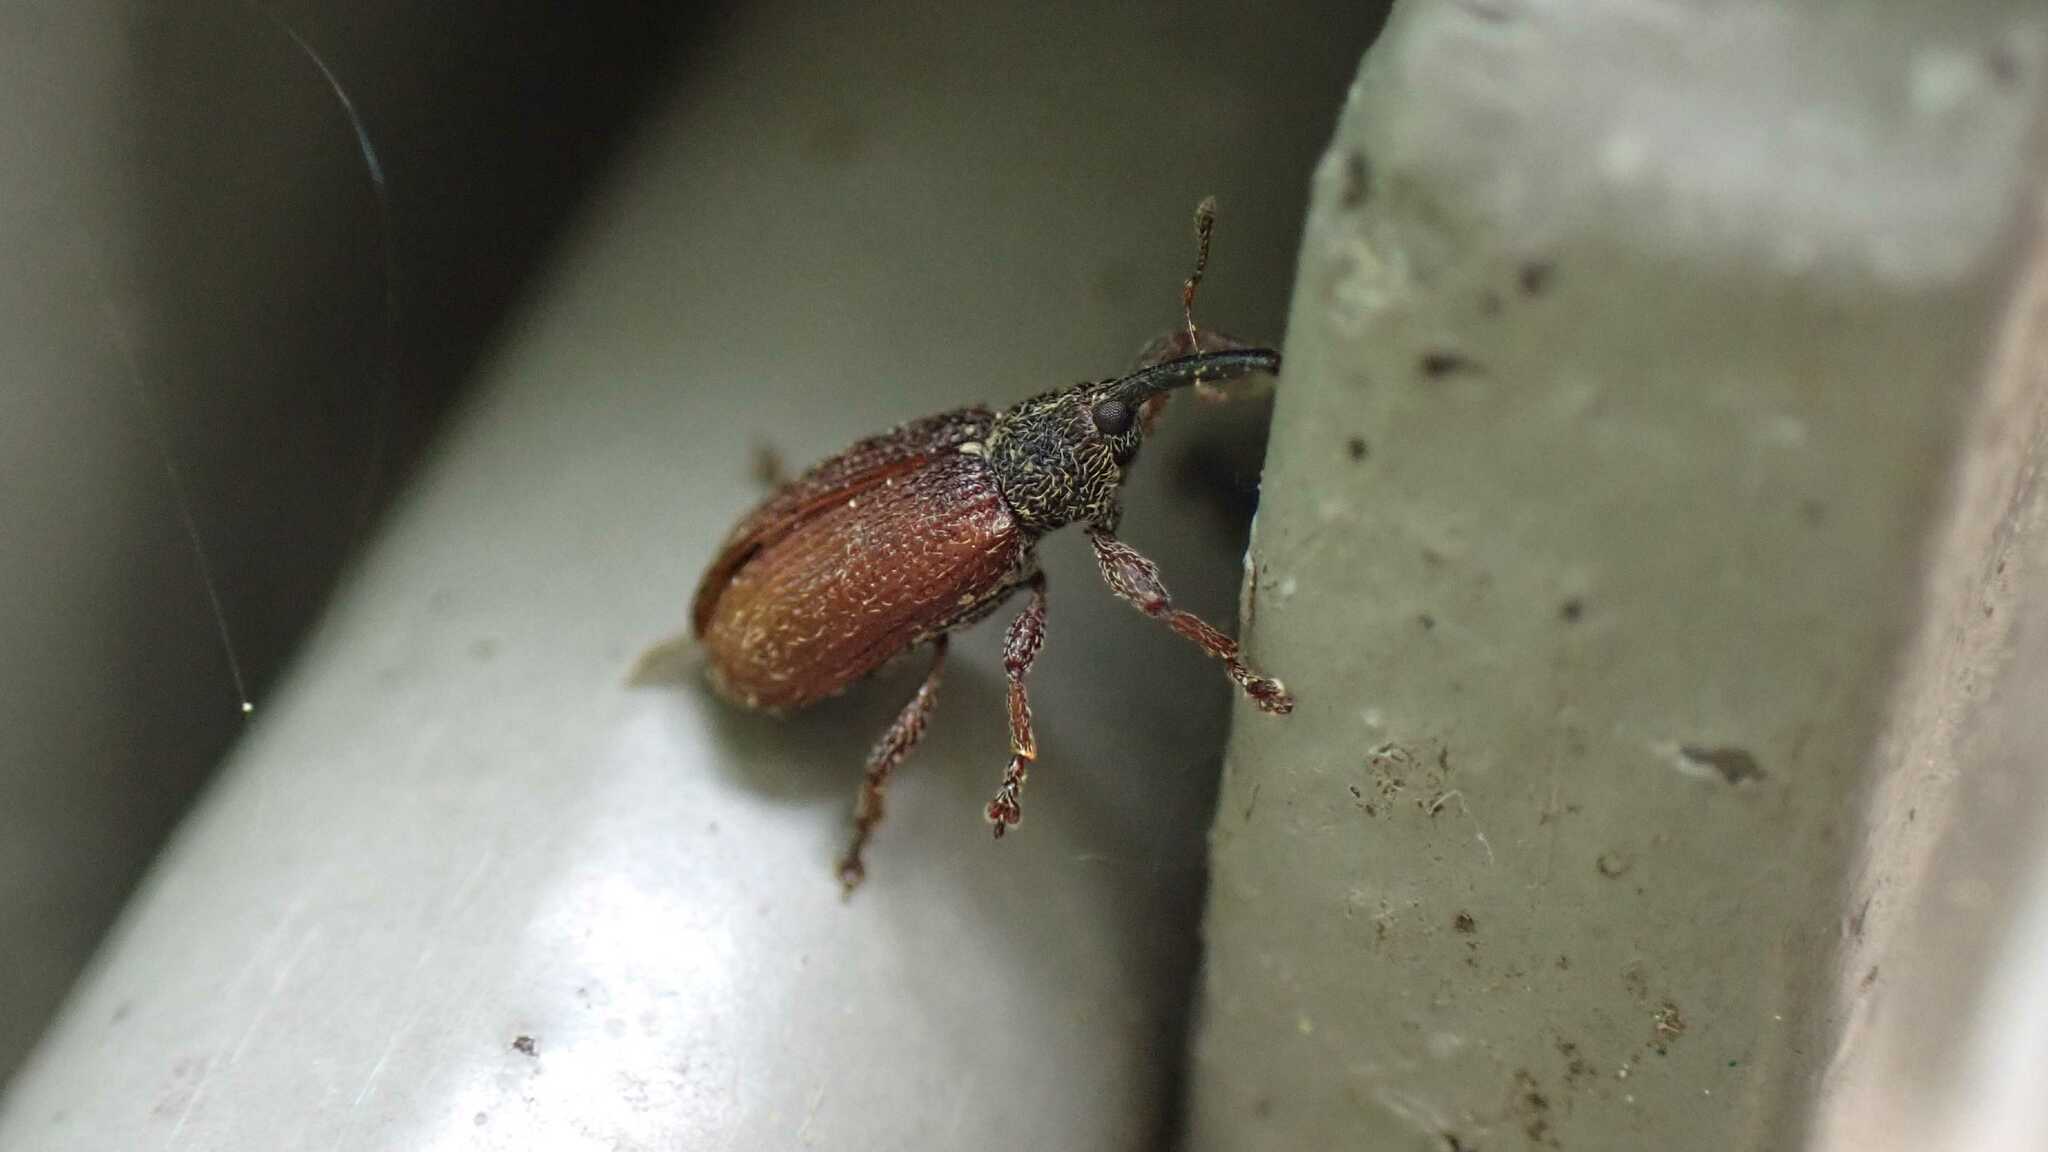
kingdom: Animalia
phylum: Arthropoda
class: Insecta
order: Coleoptera
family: Curculionidae
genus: Bradybatus
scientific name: Bradybatus kellneri
